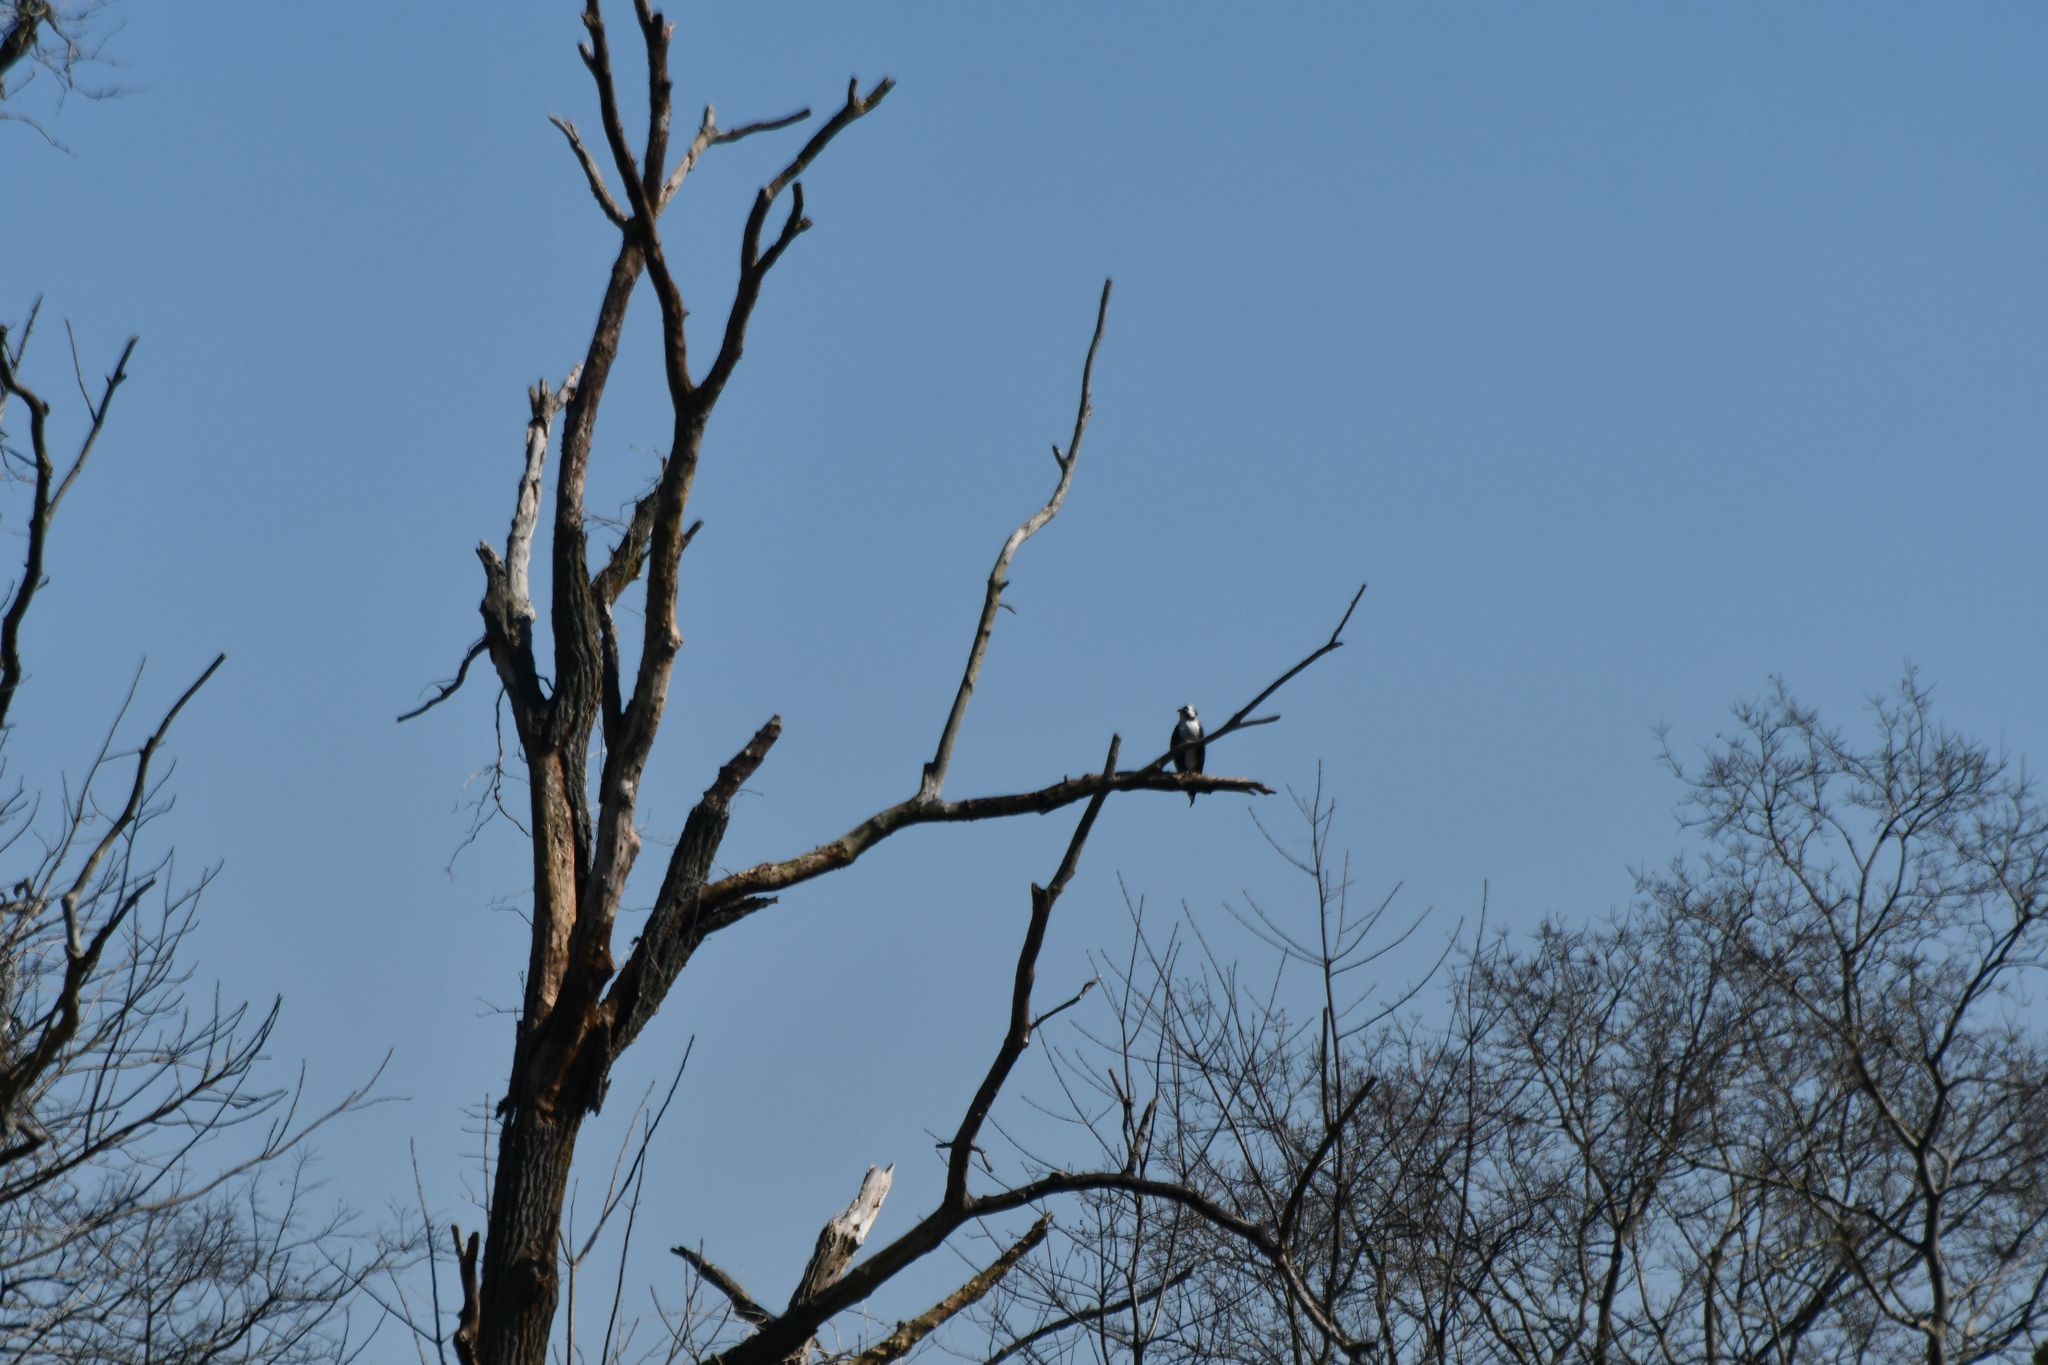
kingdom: Animalia
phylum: Chordata
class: Aves
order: Accipitriformes
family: Pandionidae
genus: Pandion
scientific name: Pandion haliaetus
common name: Osprey
